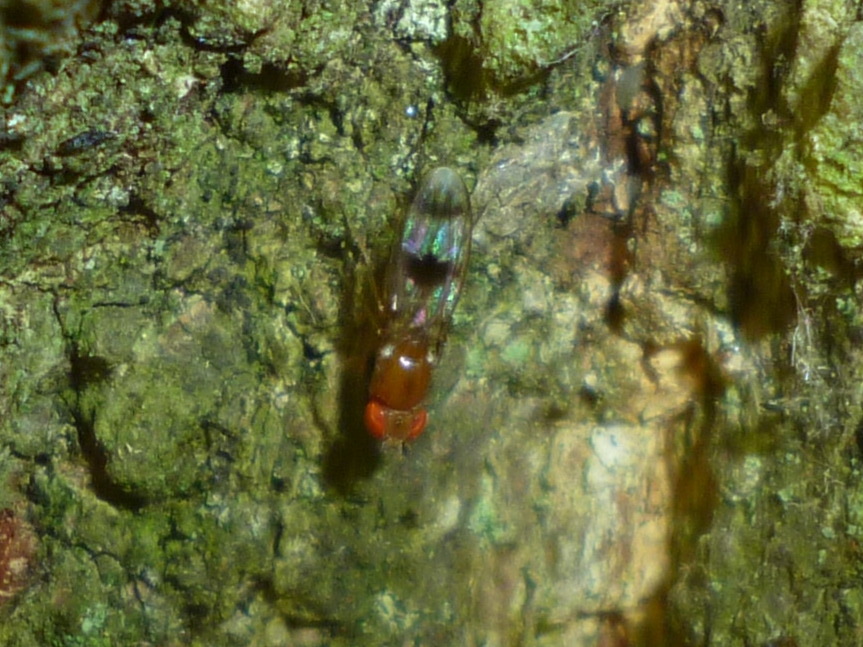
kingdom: Animalia
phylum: Arthropoda
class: Insecta
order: Diptera
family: Drosophilidae
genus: Chymomyza
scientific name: Chymomyza amoena
